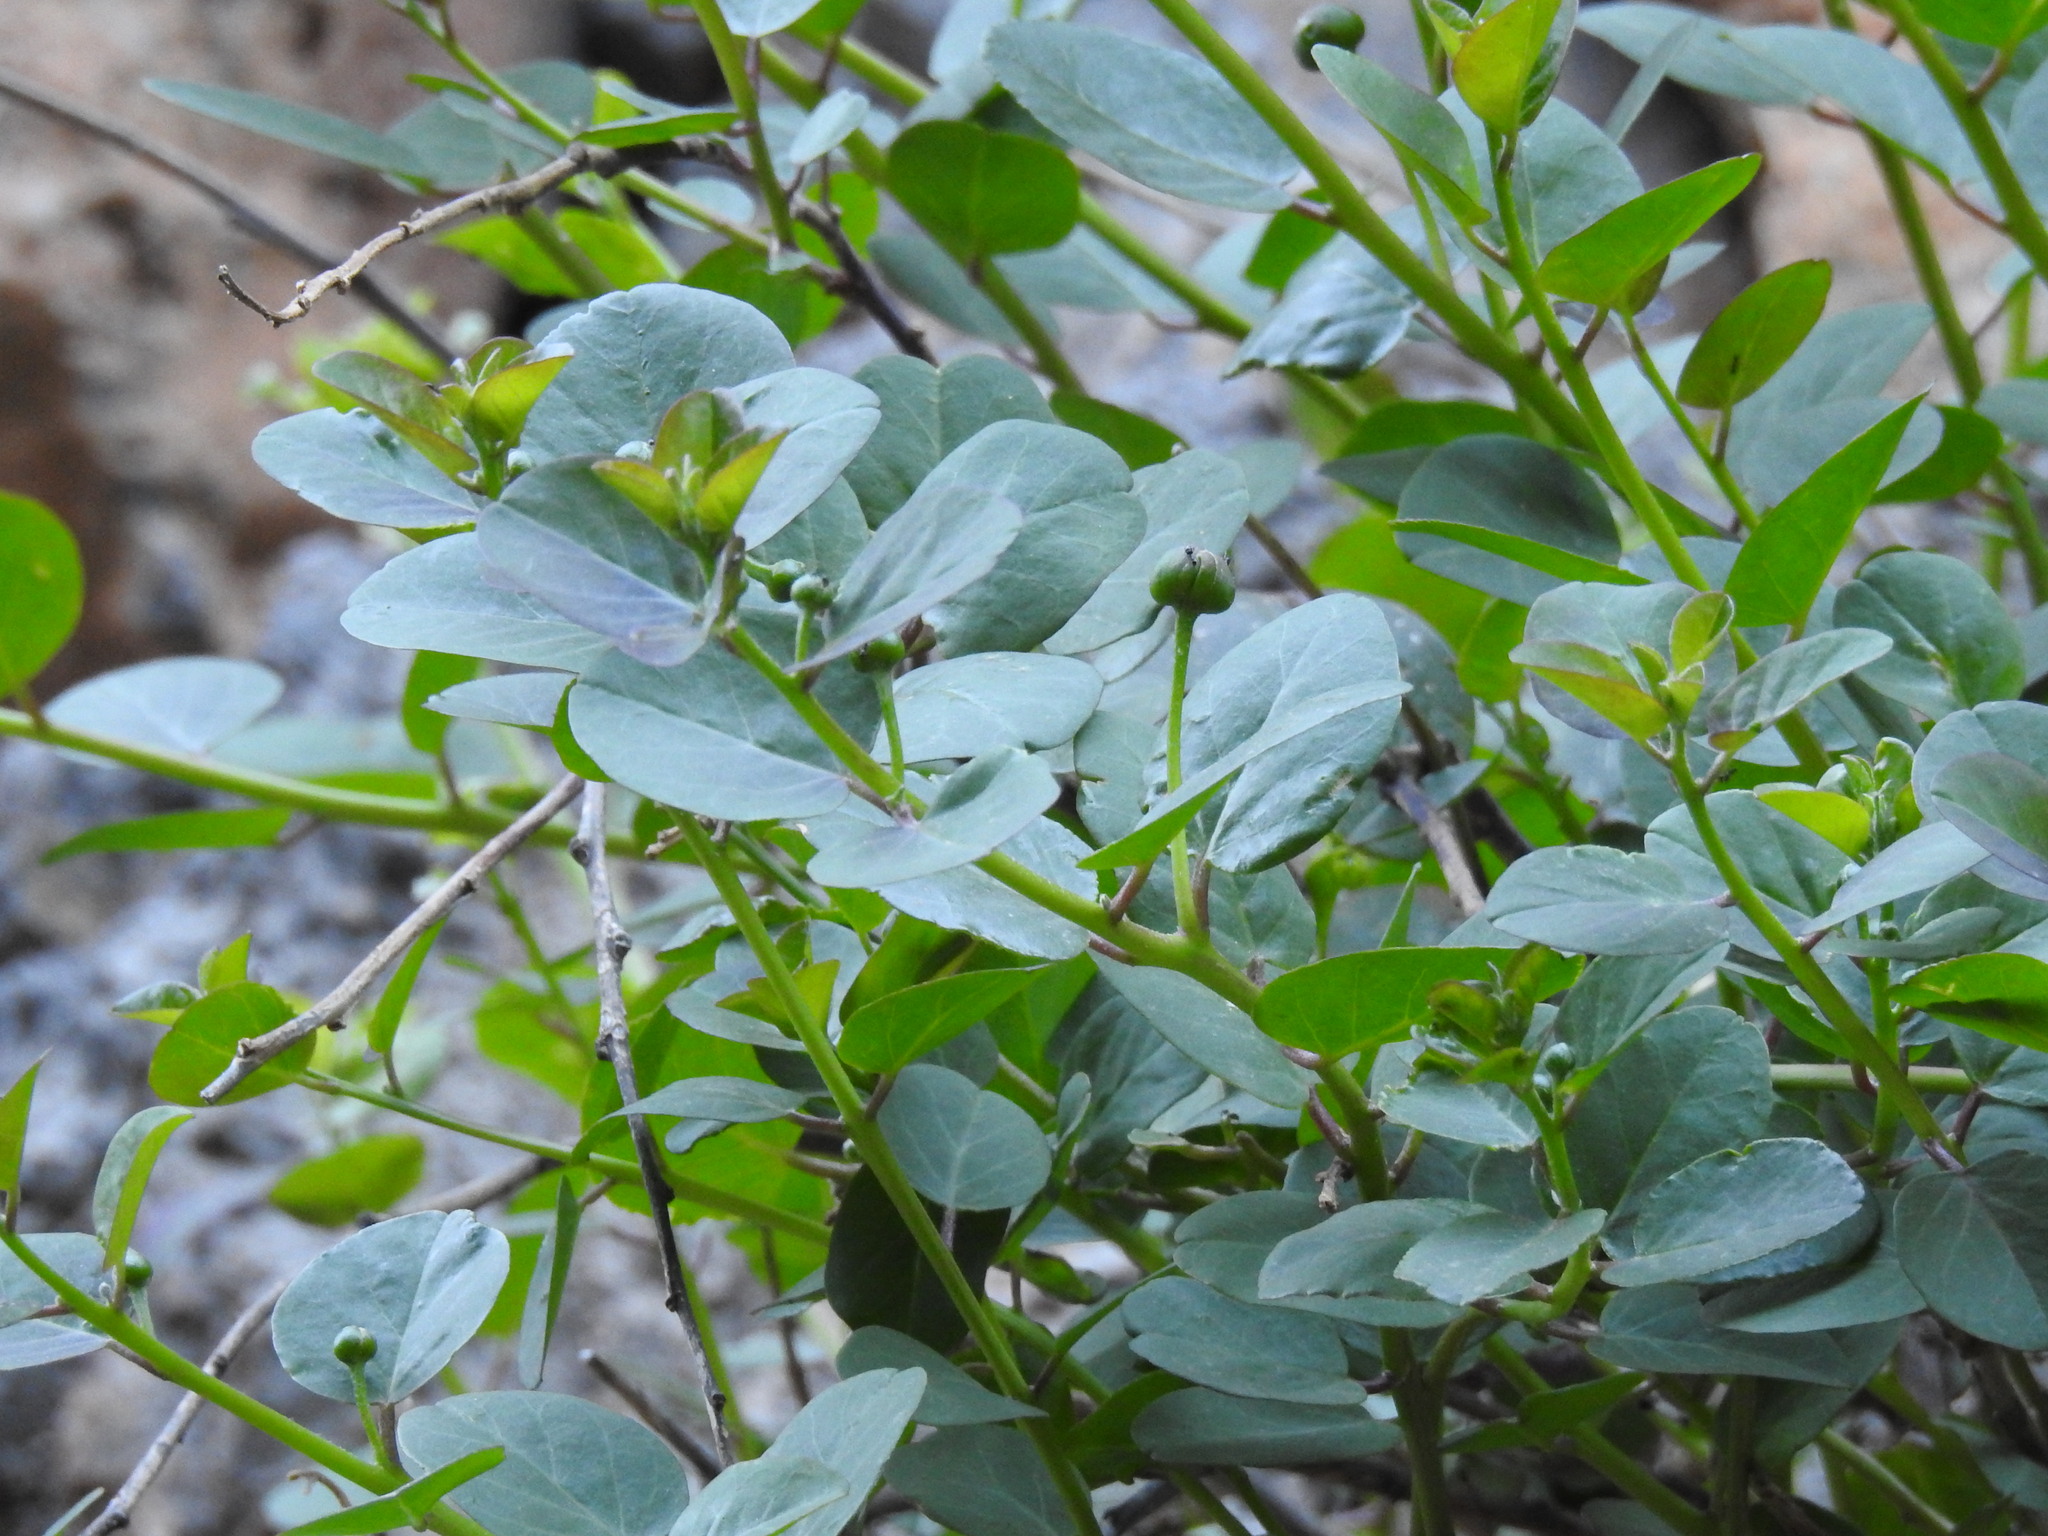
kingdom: Plantae
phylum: Tracheophyta
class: Magnoliopsida
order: Brassicales
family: Capparaceae
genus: Capparis
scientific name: Capparis orientalis
